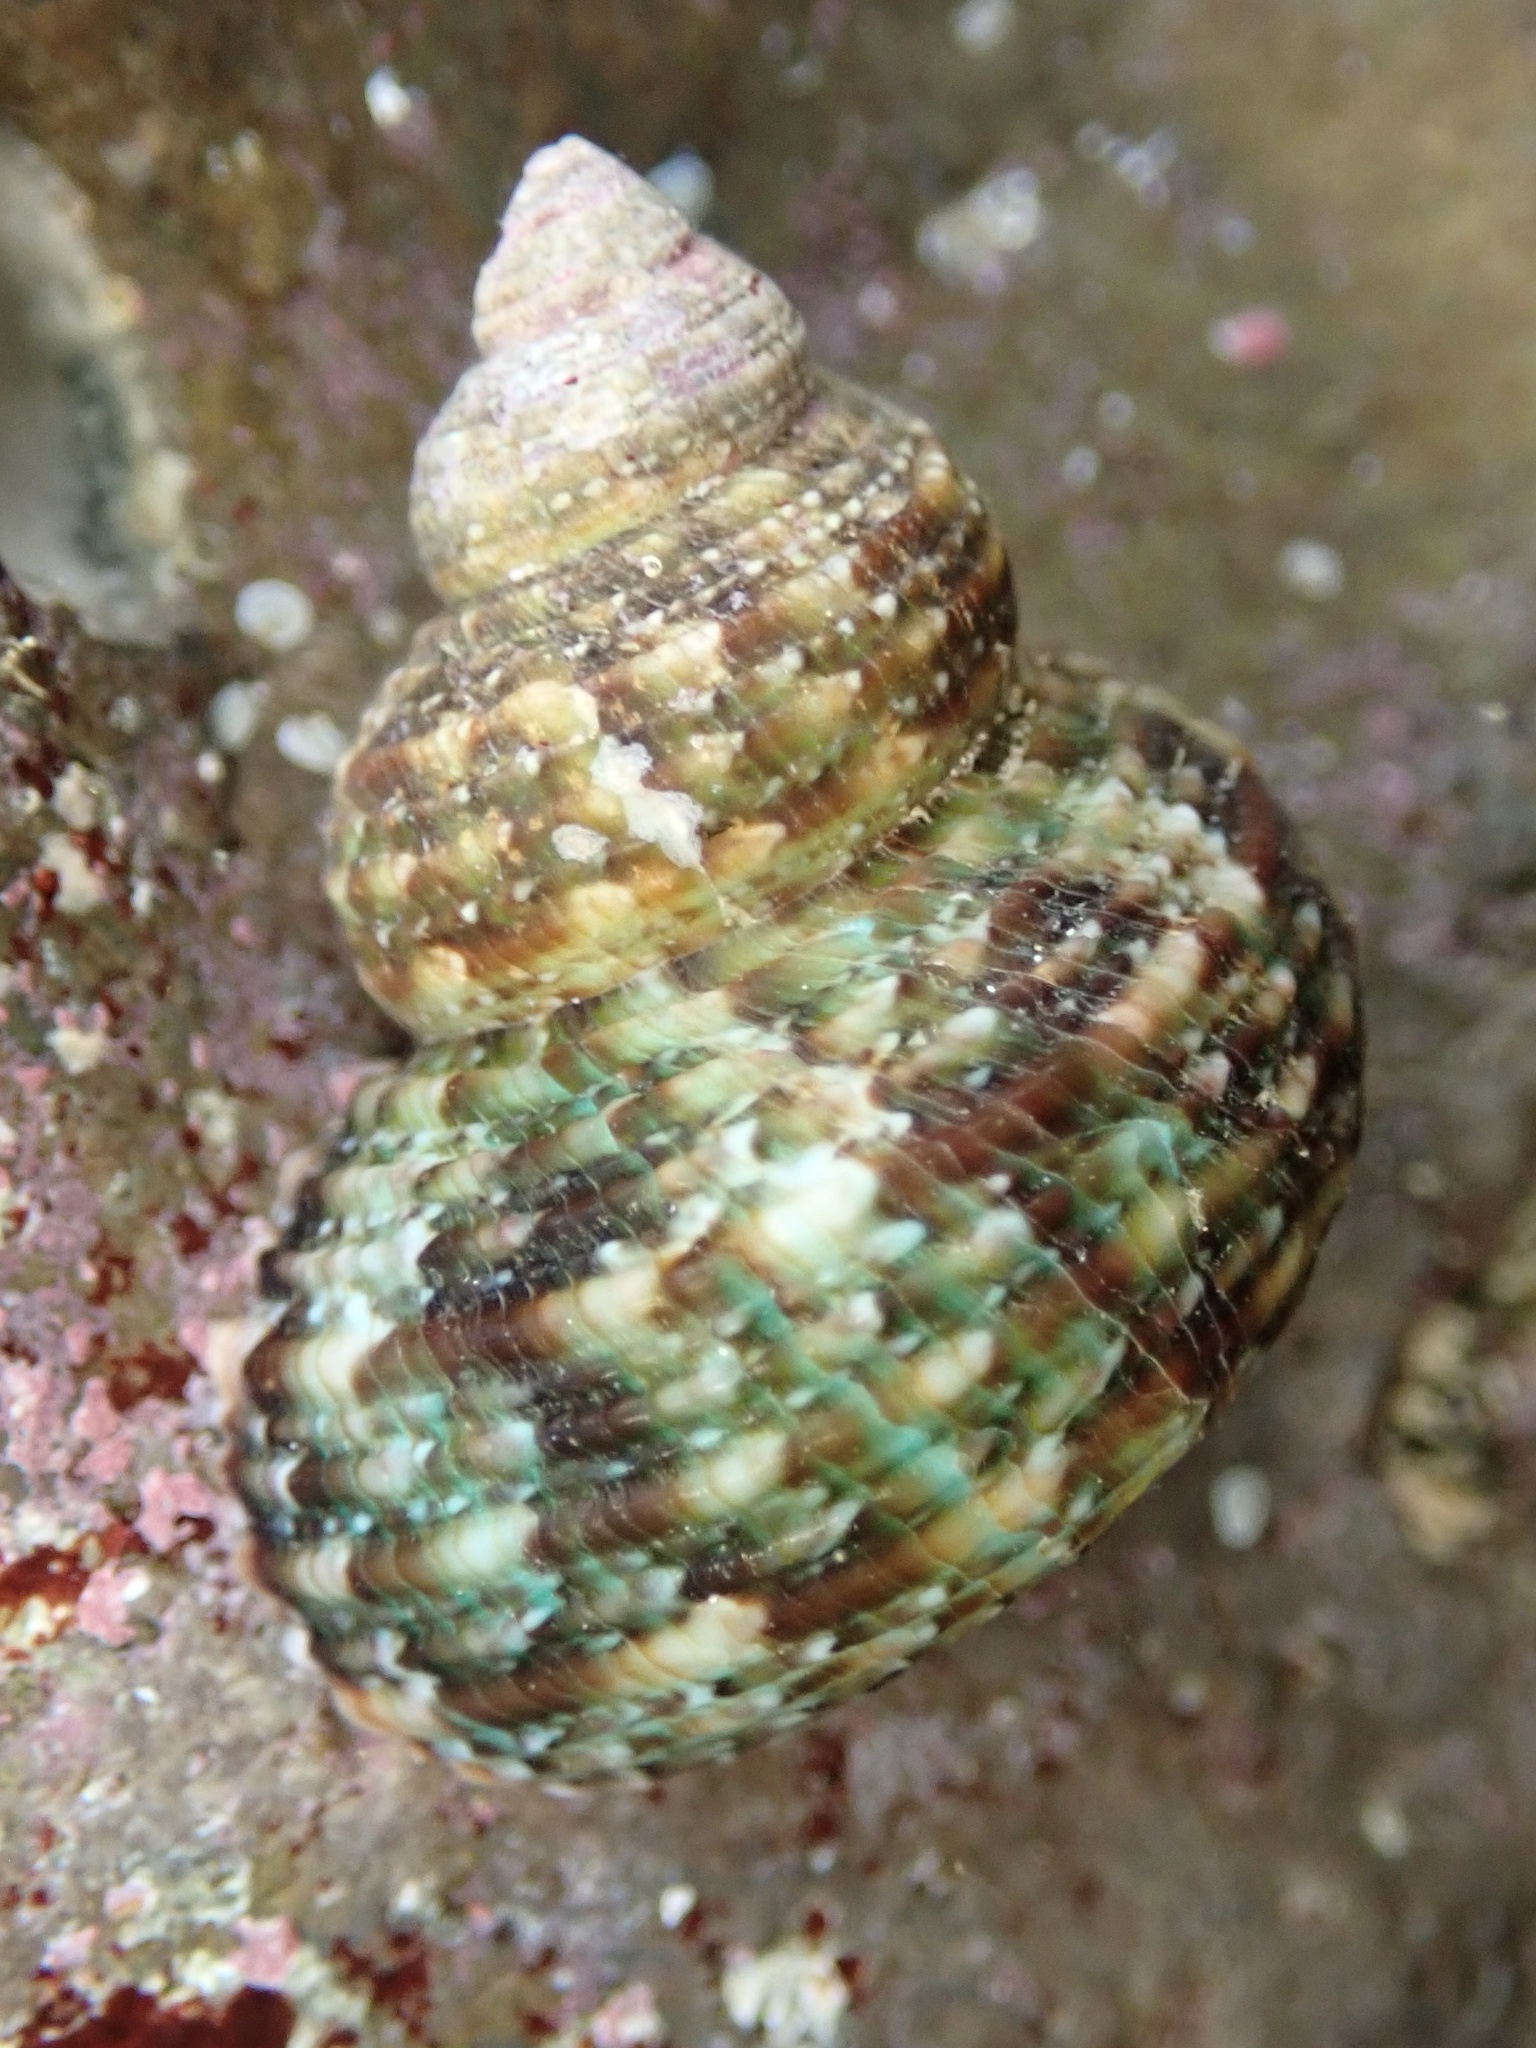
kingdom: Animalia
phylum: Mollusca
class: Gastropoda
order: Trochida
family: Turbinidae
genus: Turbo
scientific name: Turbo sandwicensis
